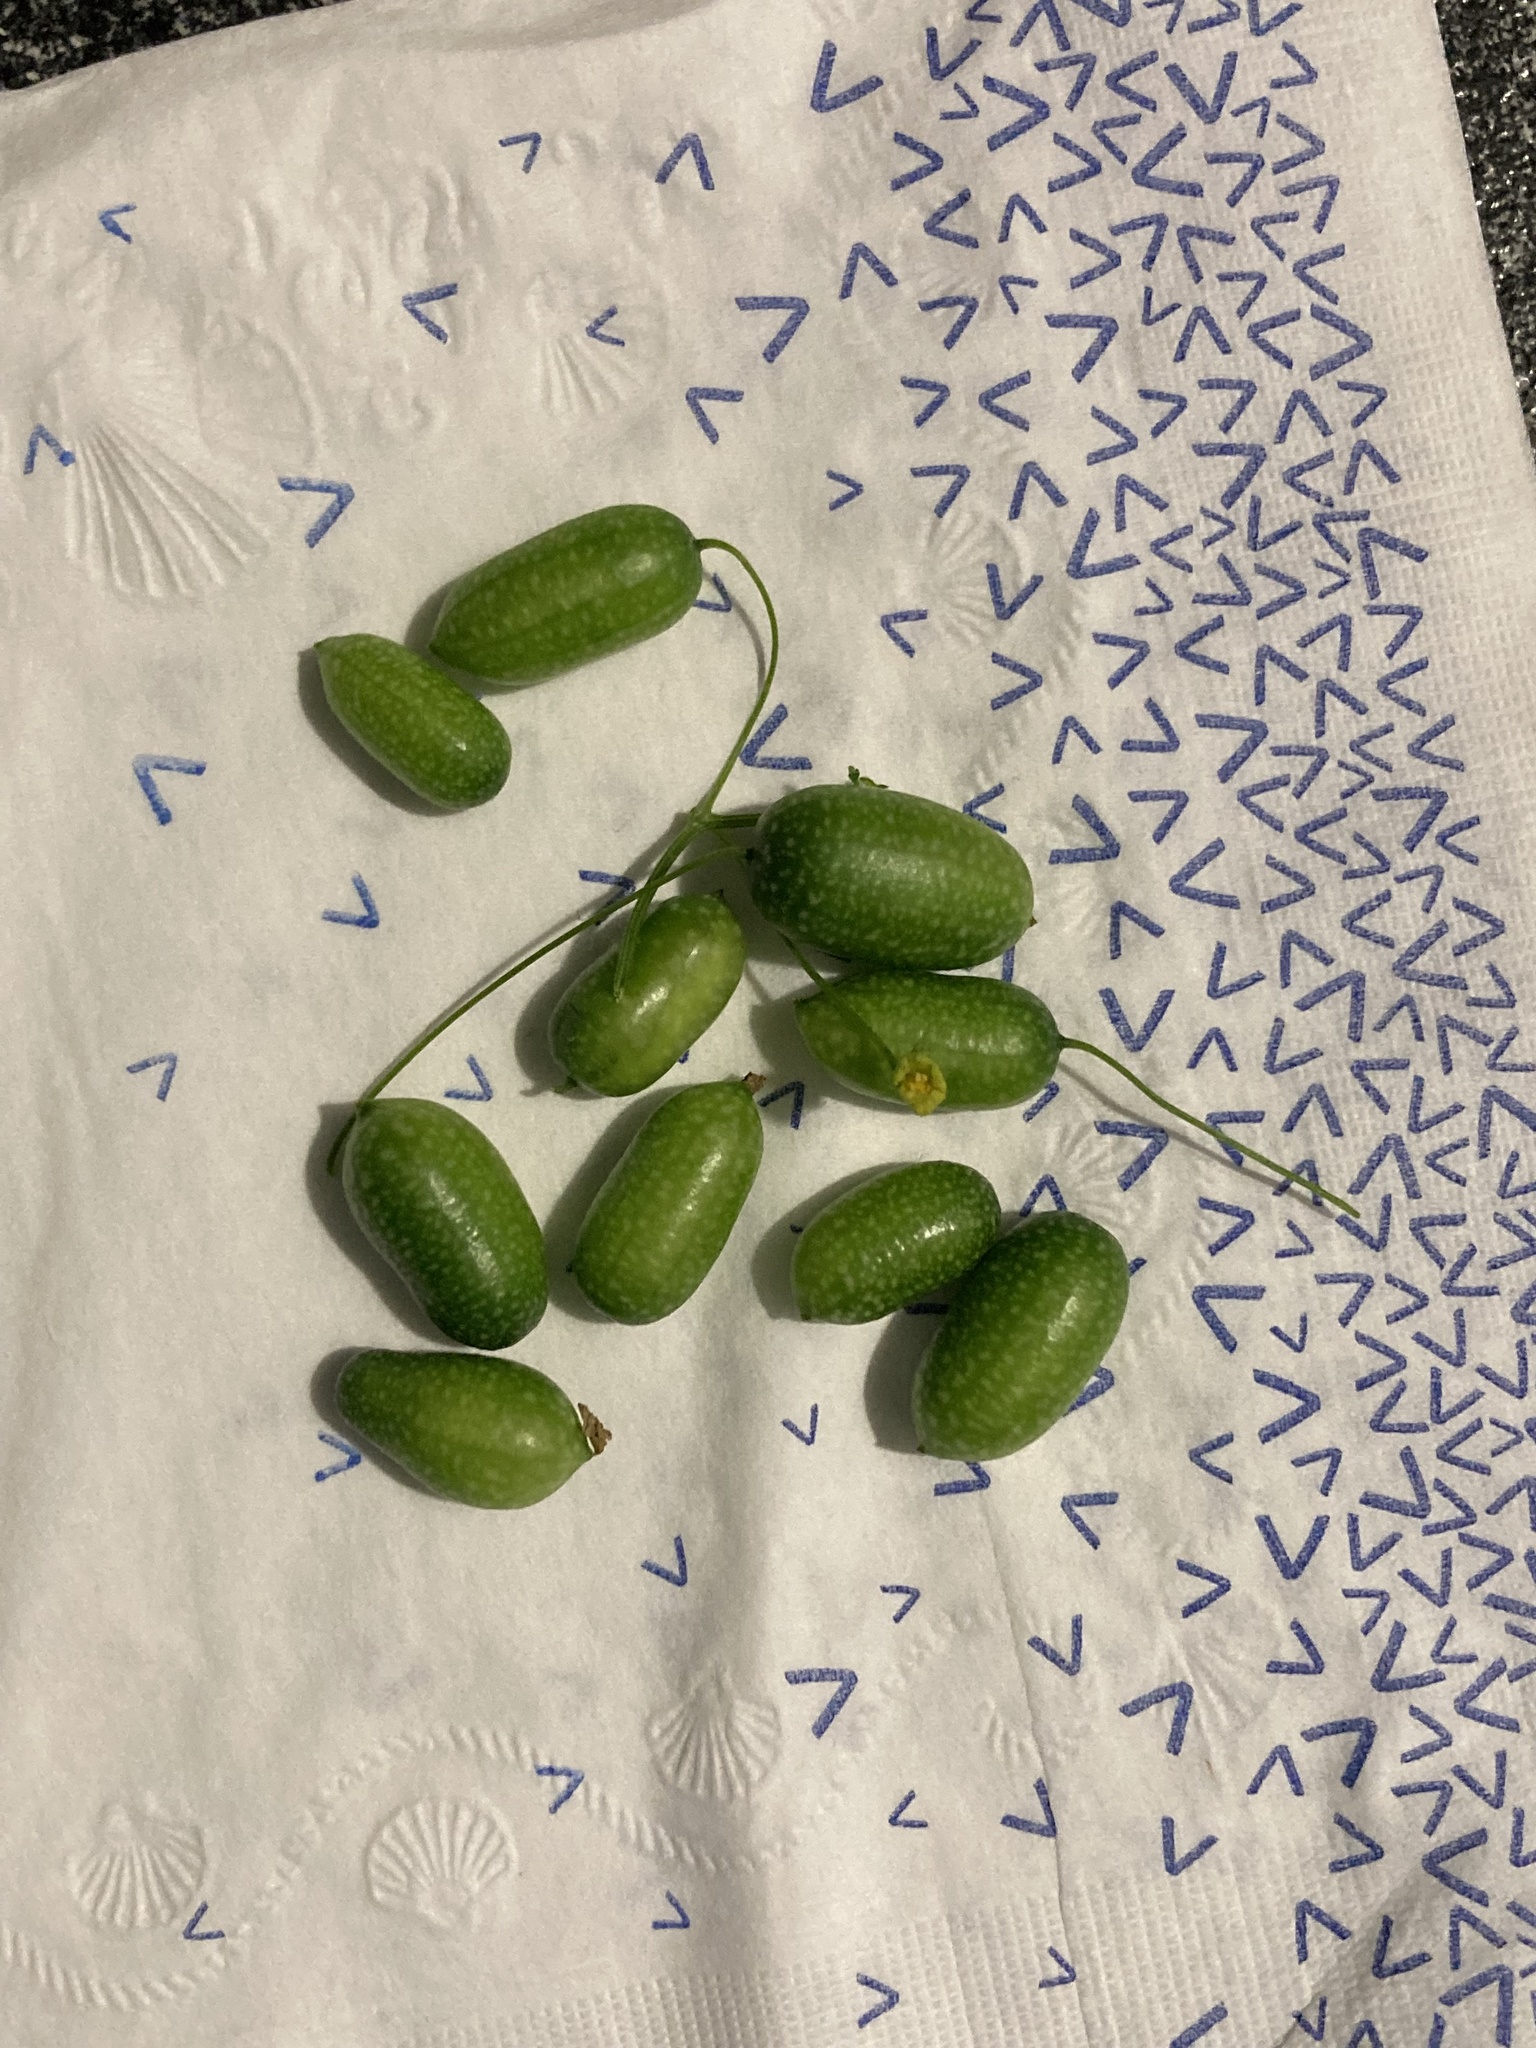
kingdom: Plantae
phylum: Tracheophyta
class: Magnoliopsida
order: Cucurbitales
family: Cucurbitaceae
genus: Melothria
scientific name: Melothria pendula
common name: Creeping-cucumber
